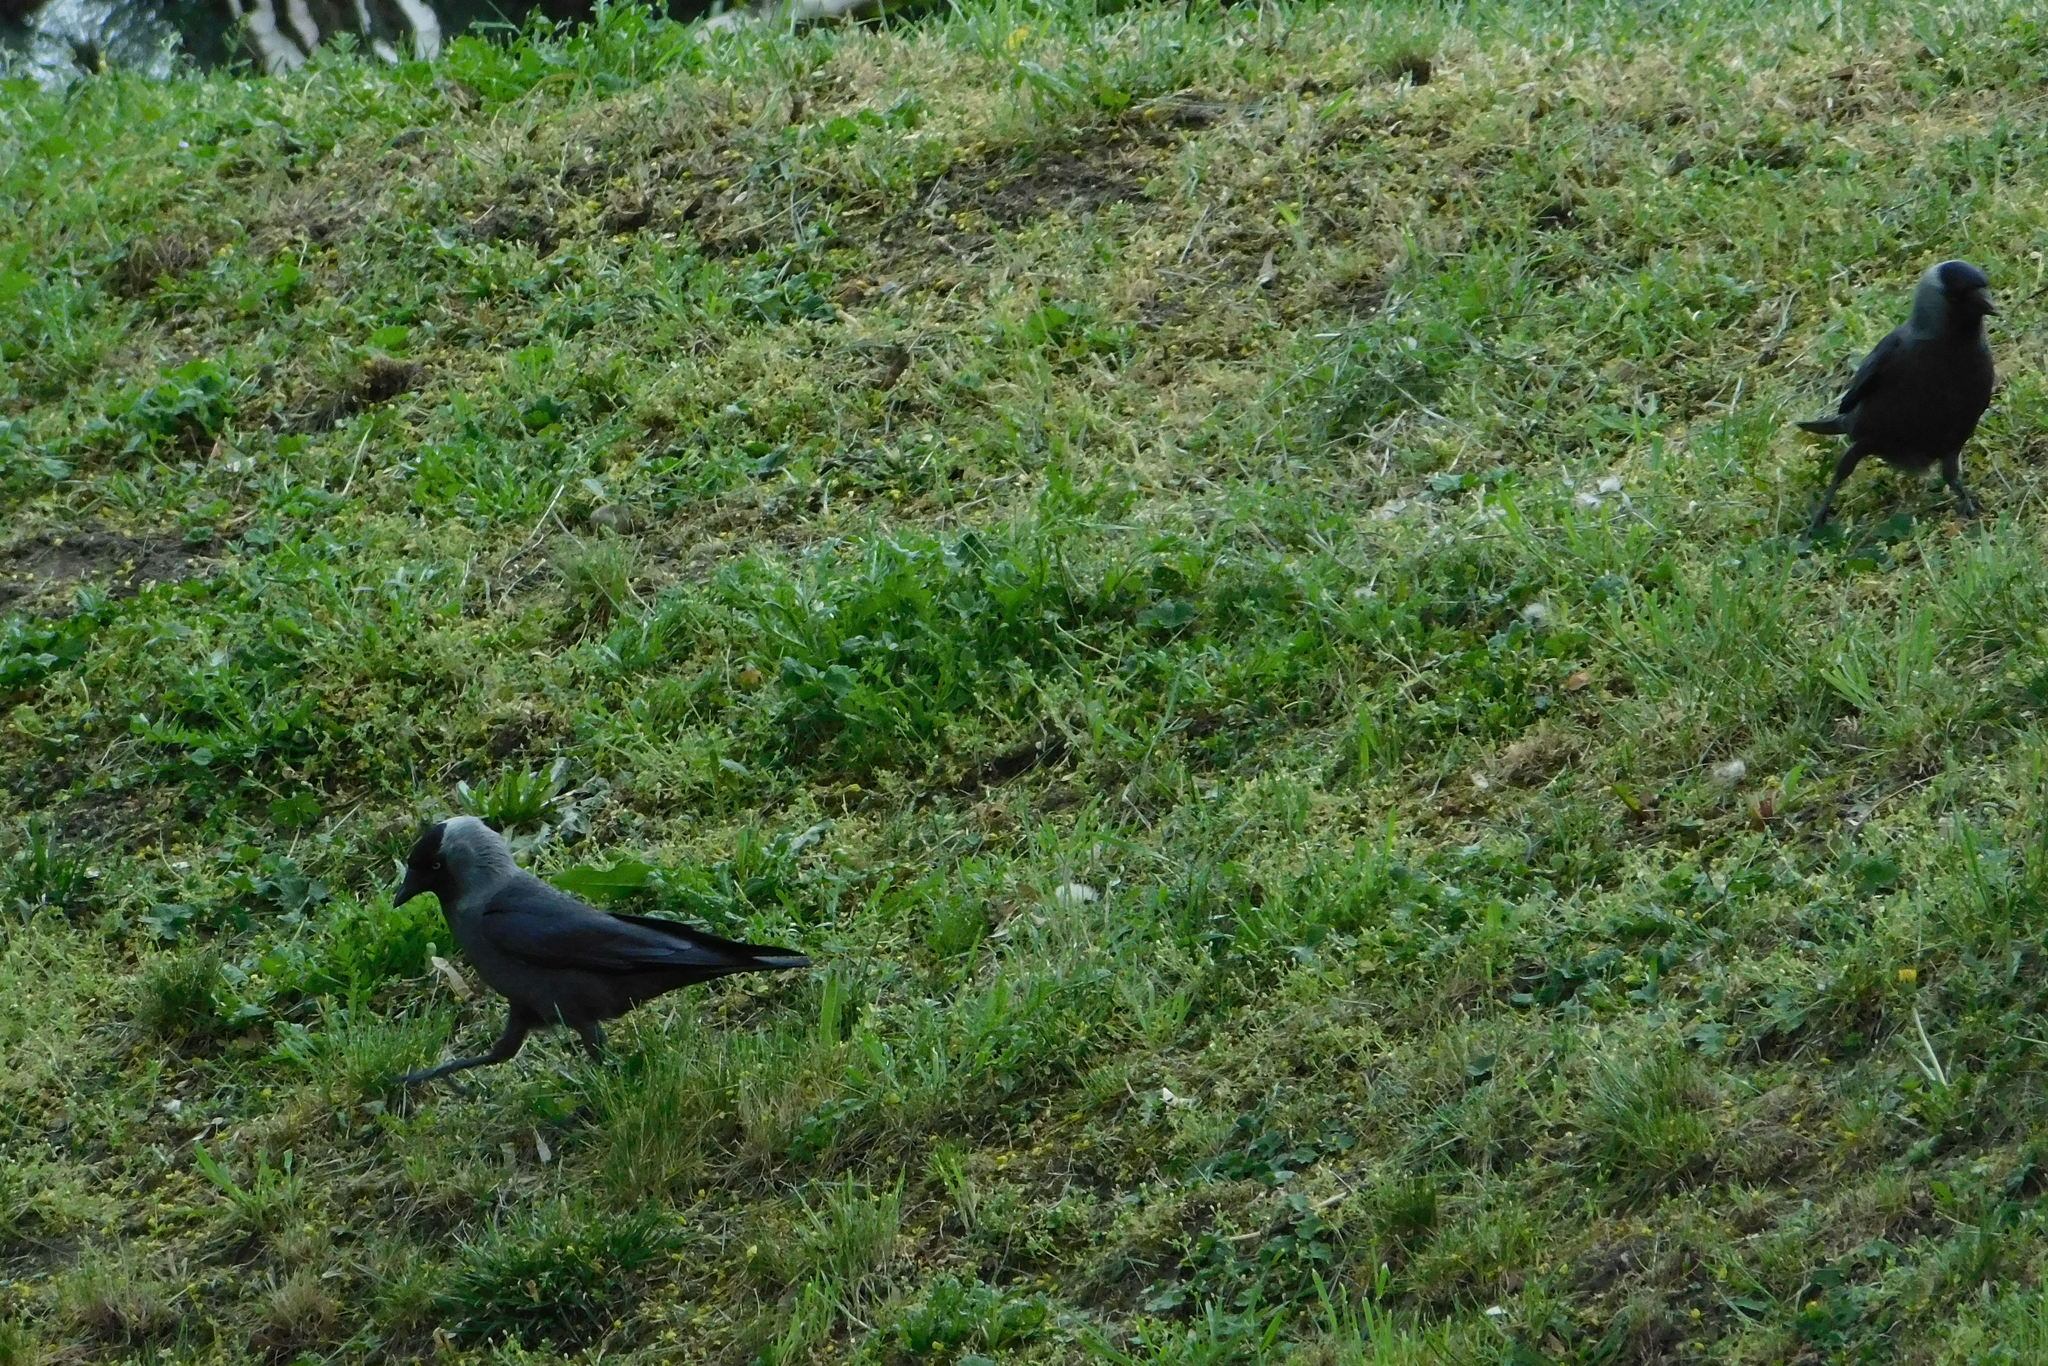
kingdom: Animalia
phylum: Chordata
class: Aves
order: Passeriformes
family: Corvidae
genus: Coloeus
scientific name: Coloeus monedula
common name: Western jackdaw
